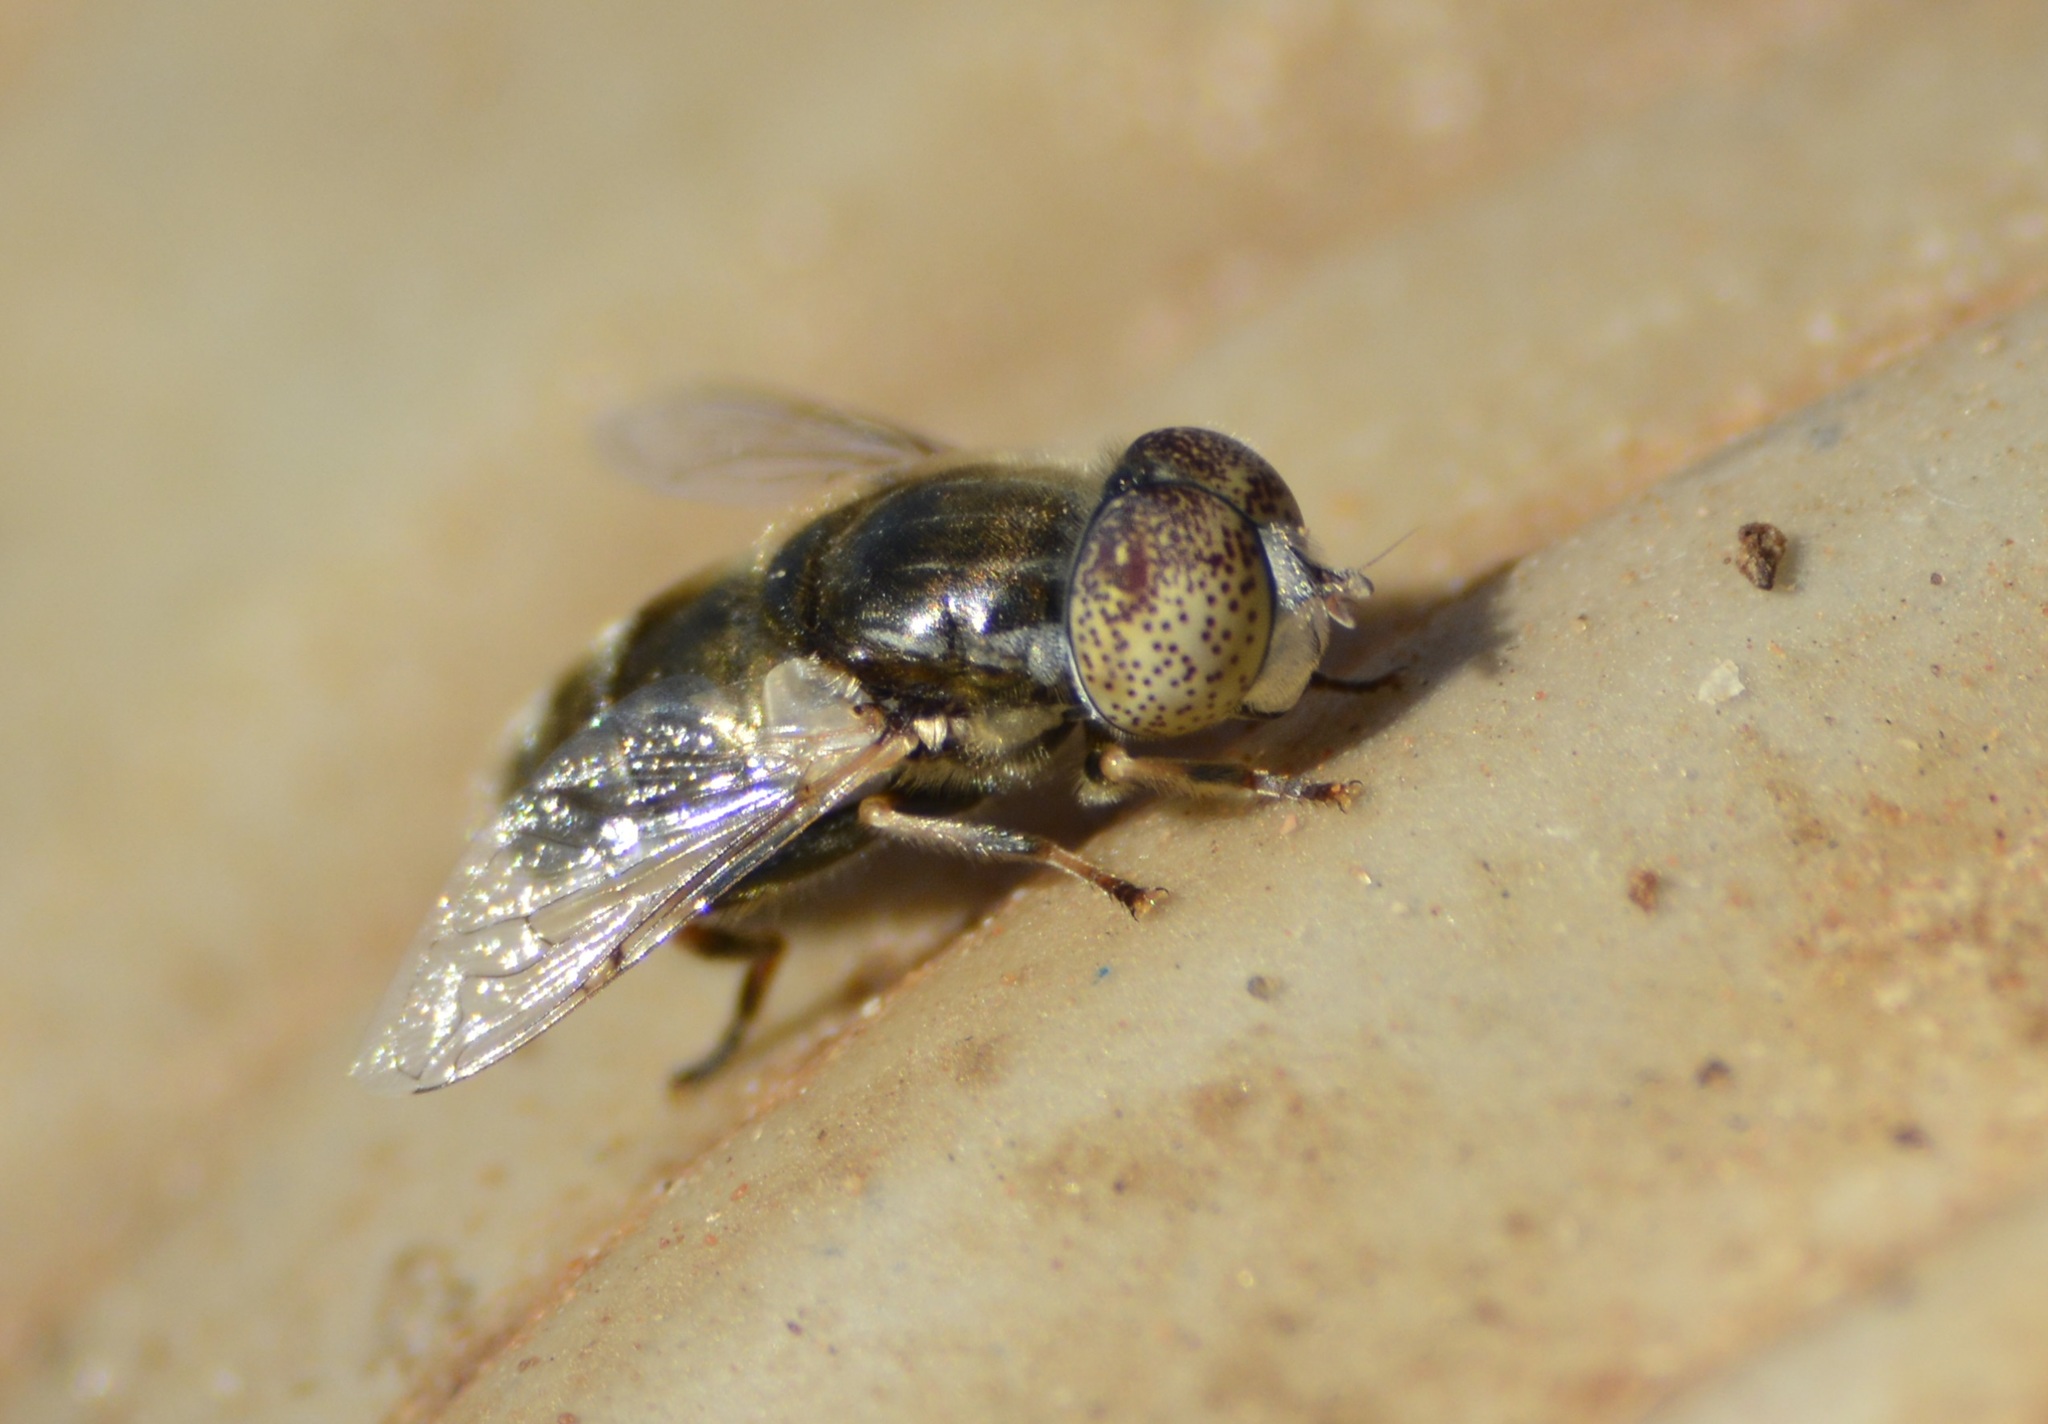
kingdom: Animalia
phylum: Arthropoda
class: Insecta
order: Diptera
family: Syrphidae
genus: Eristalinus
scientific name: Eristalinus aeneus
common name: Syrphid fly
